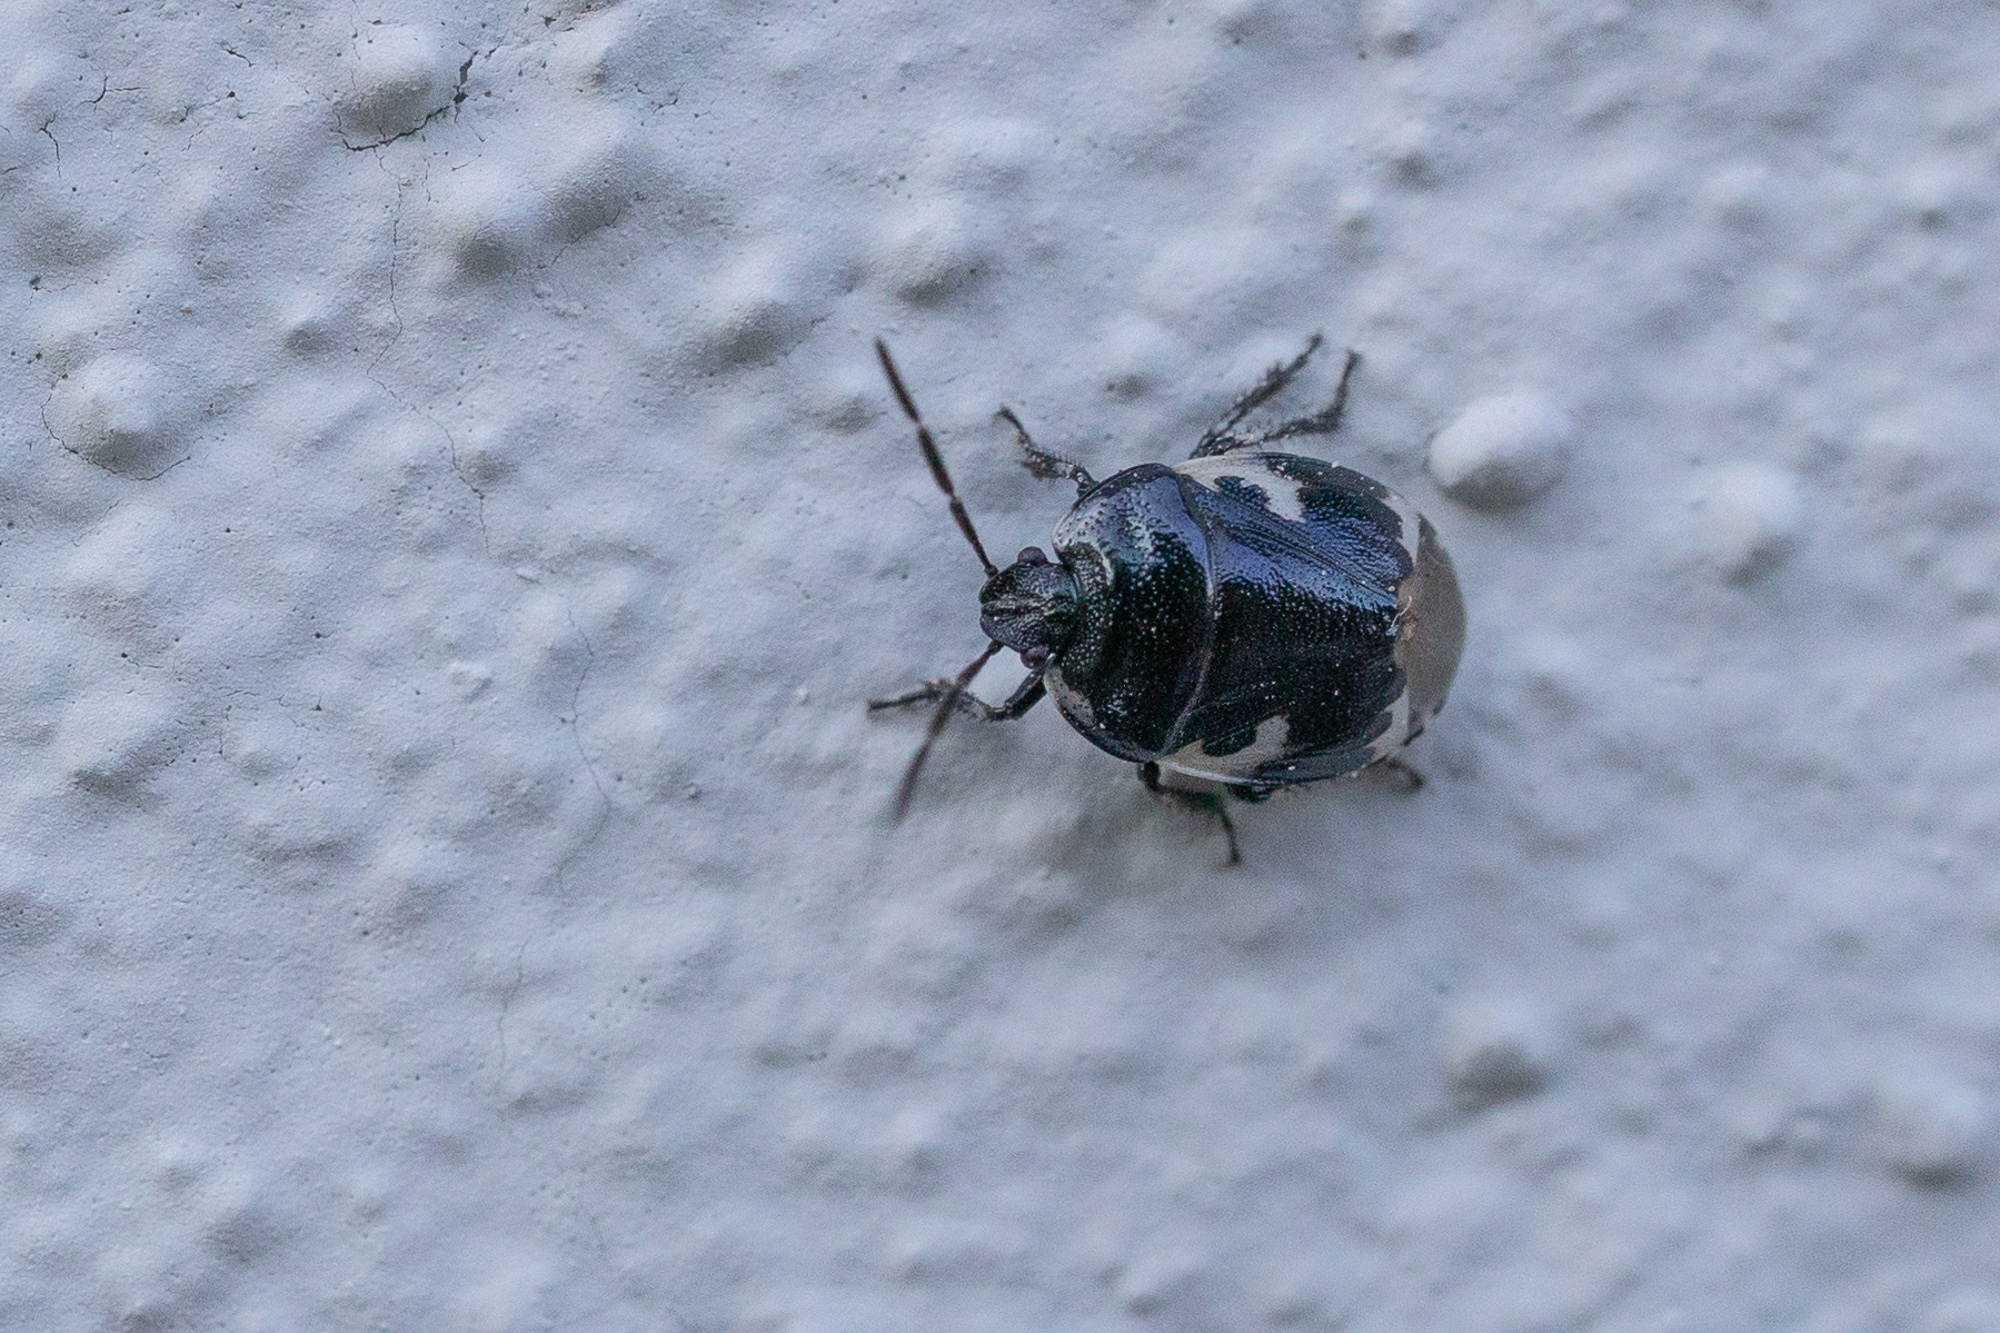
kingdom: Animalia
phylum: Arthropoda
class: Insecta
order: Hemiptera
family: Cydnidae
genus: Tritomegas
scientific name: Tritomegas bicolor
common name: Pied shieldbug
